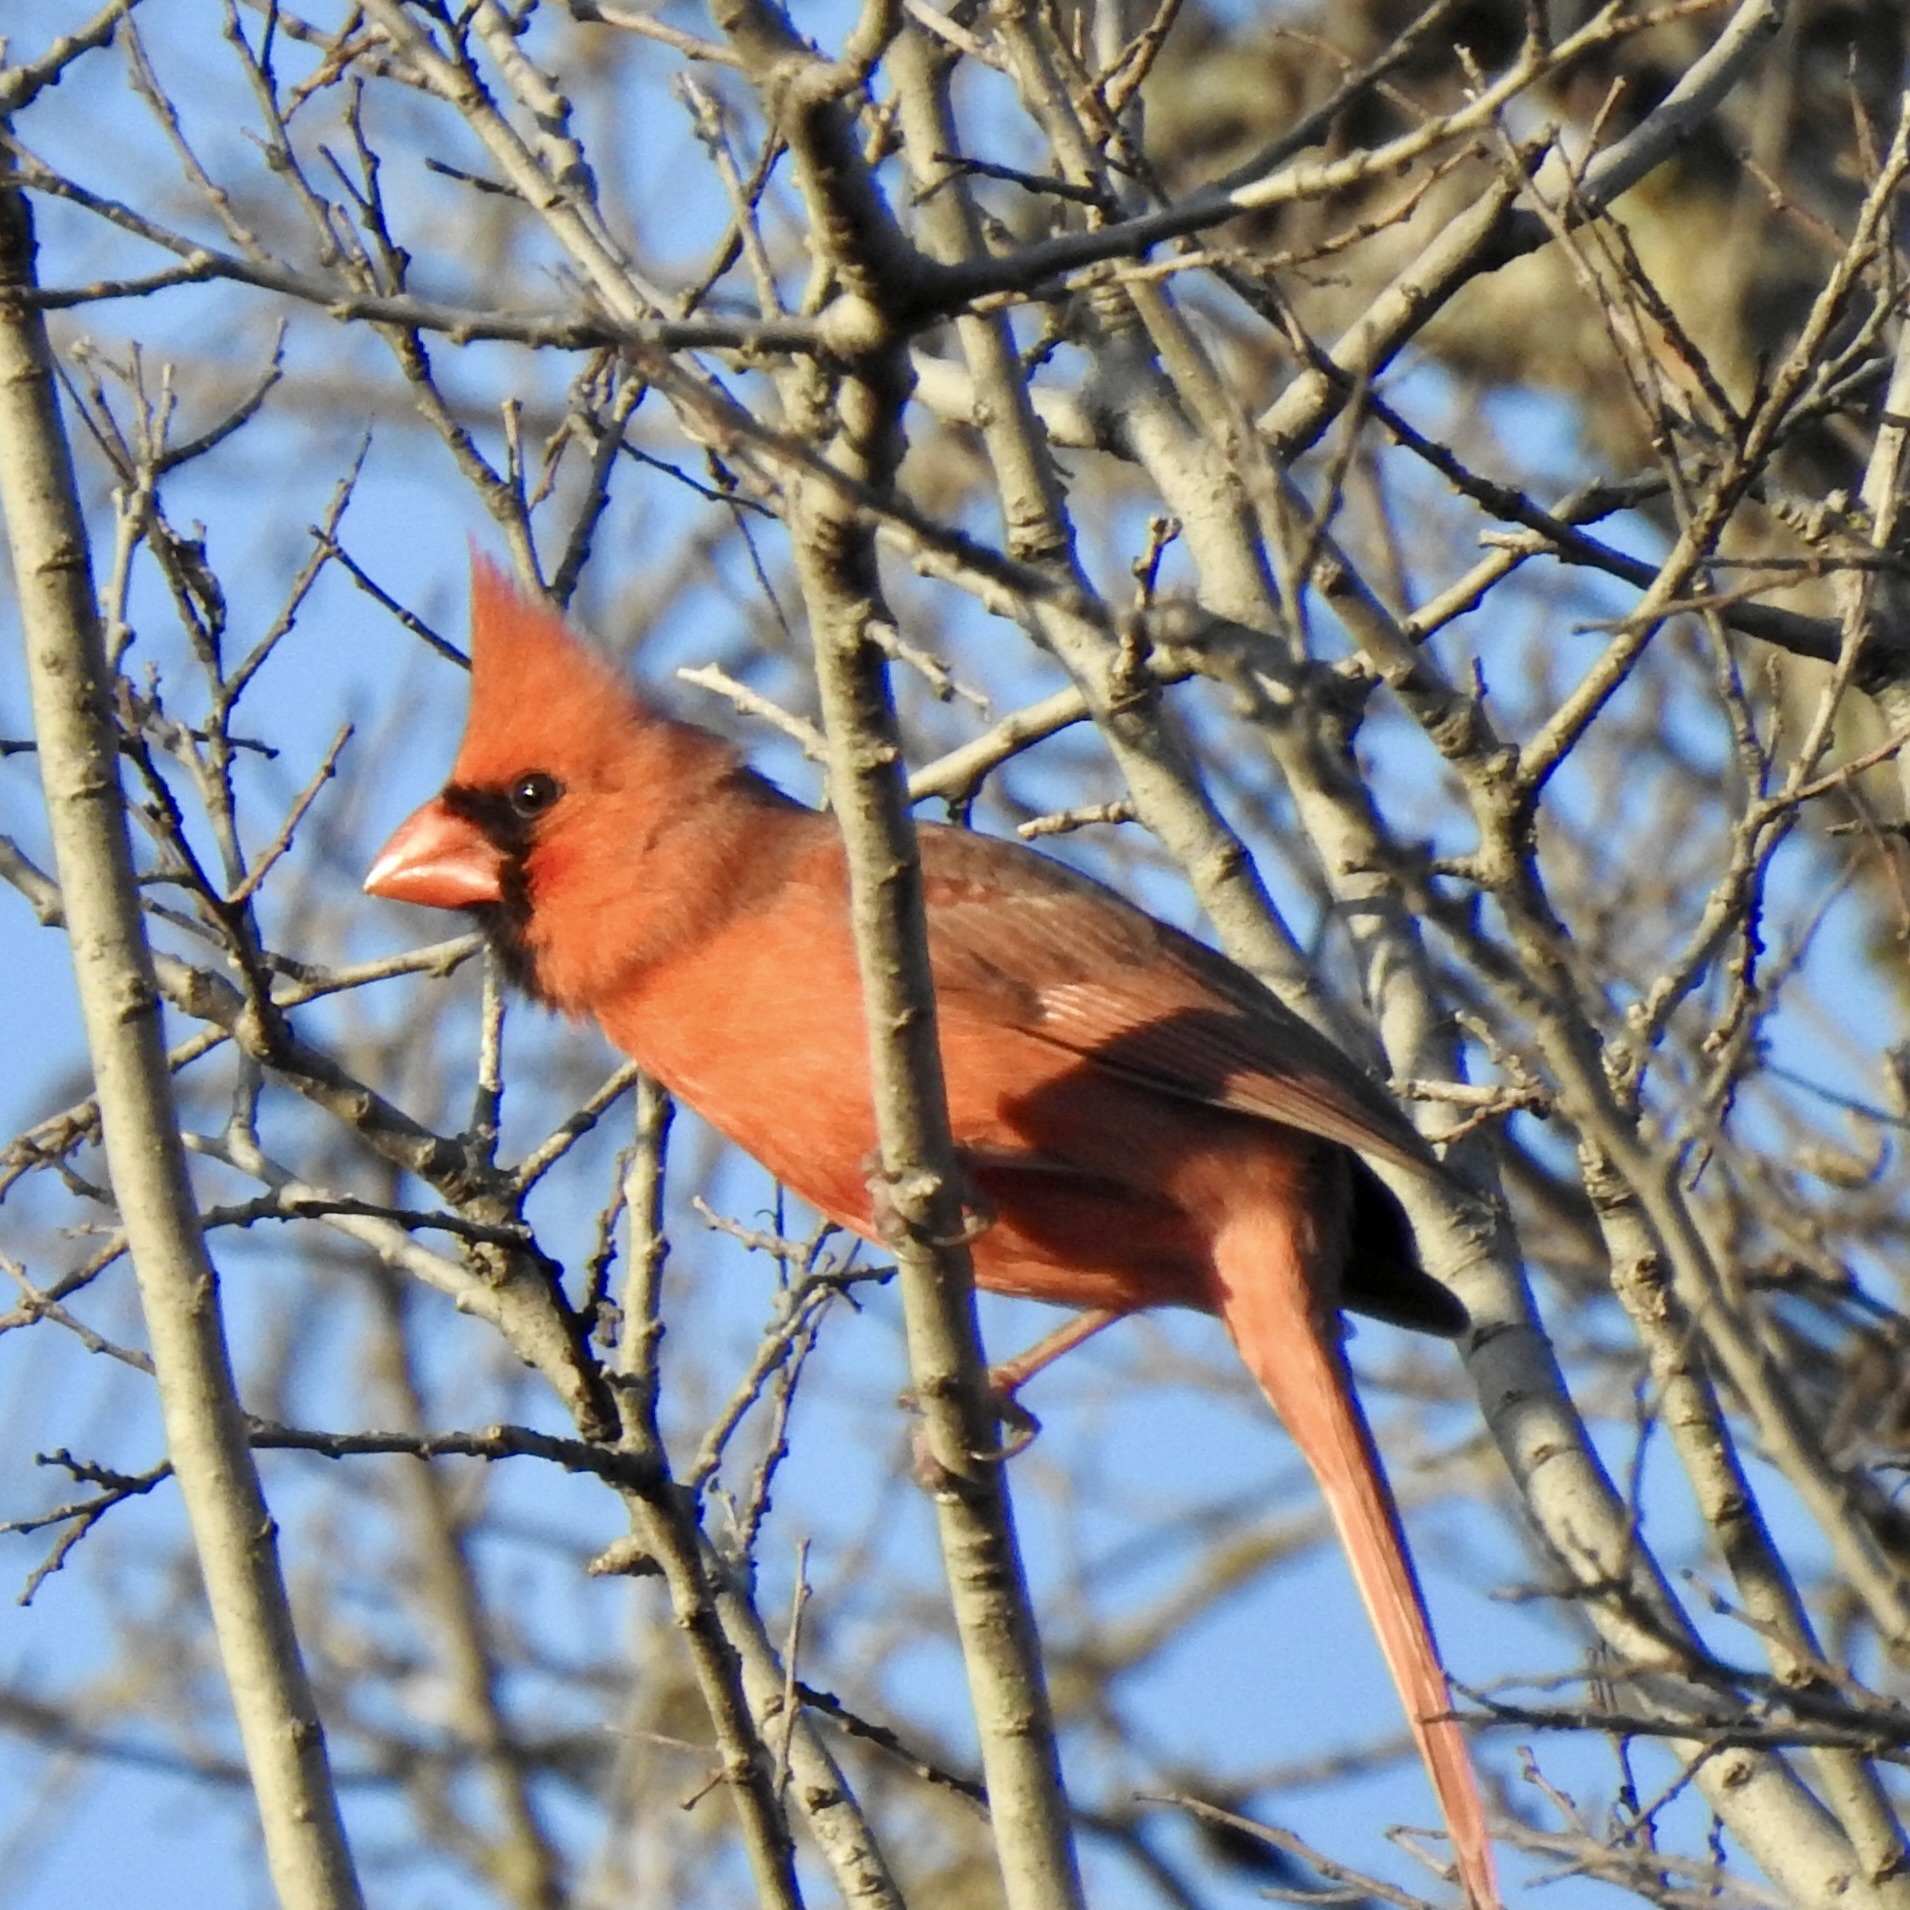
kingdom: Animalia
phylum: Chordata
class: Aves
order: Passeriformes
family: Cardinalidae
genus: Cardinalis
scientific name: Cardinalis cardinalis
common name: Northern cardinal
